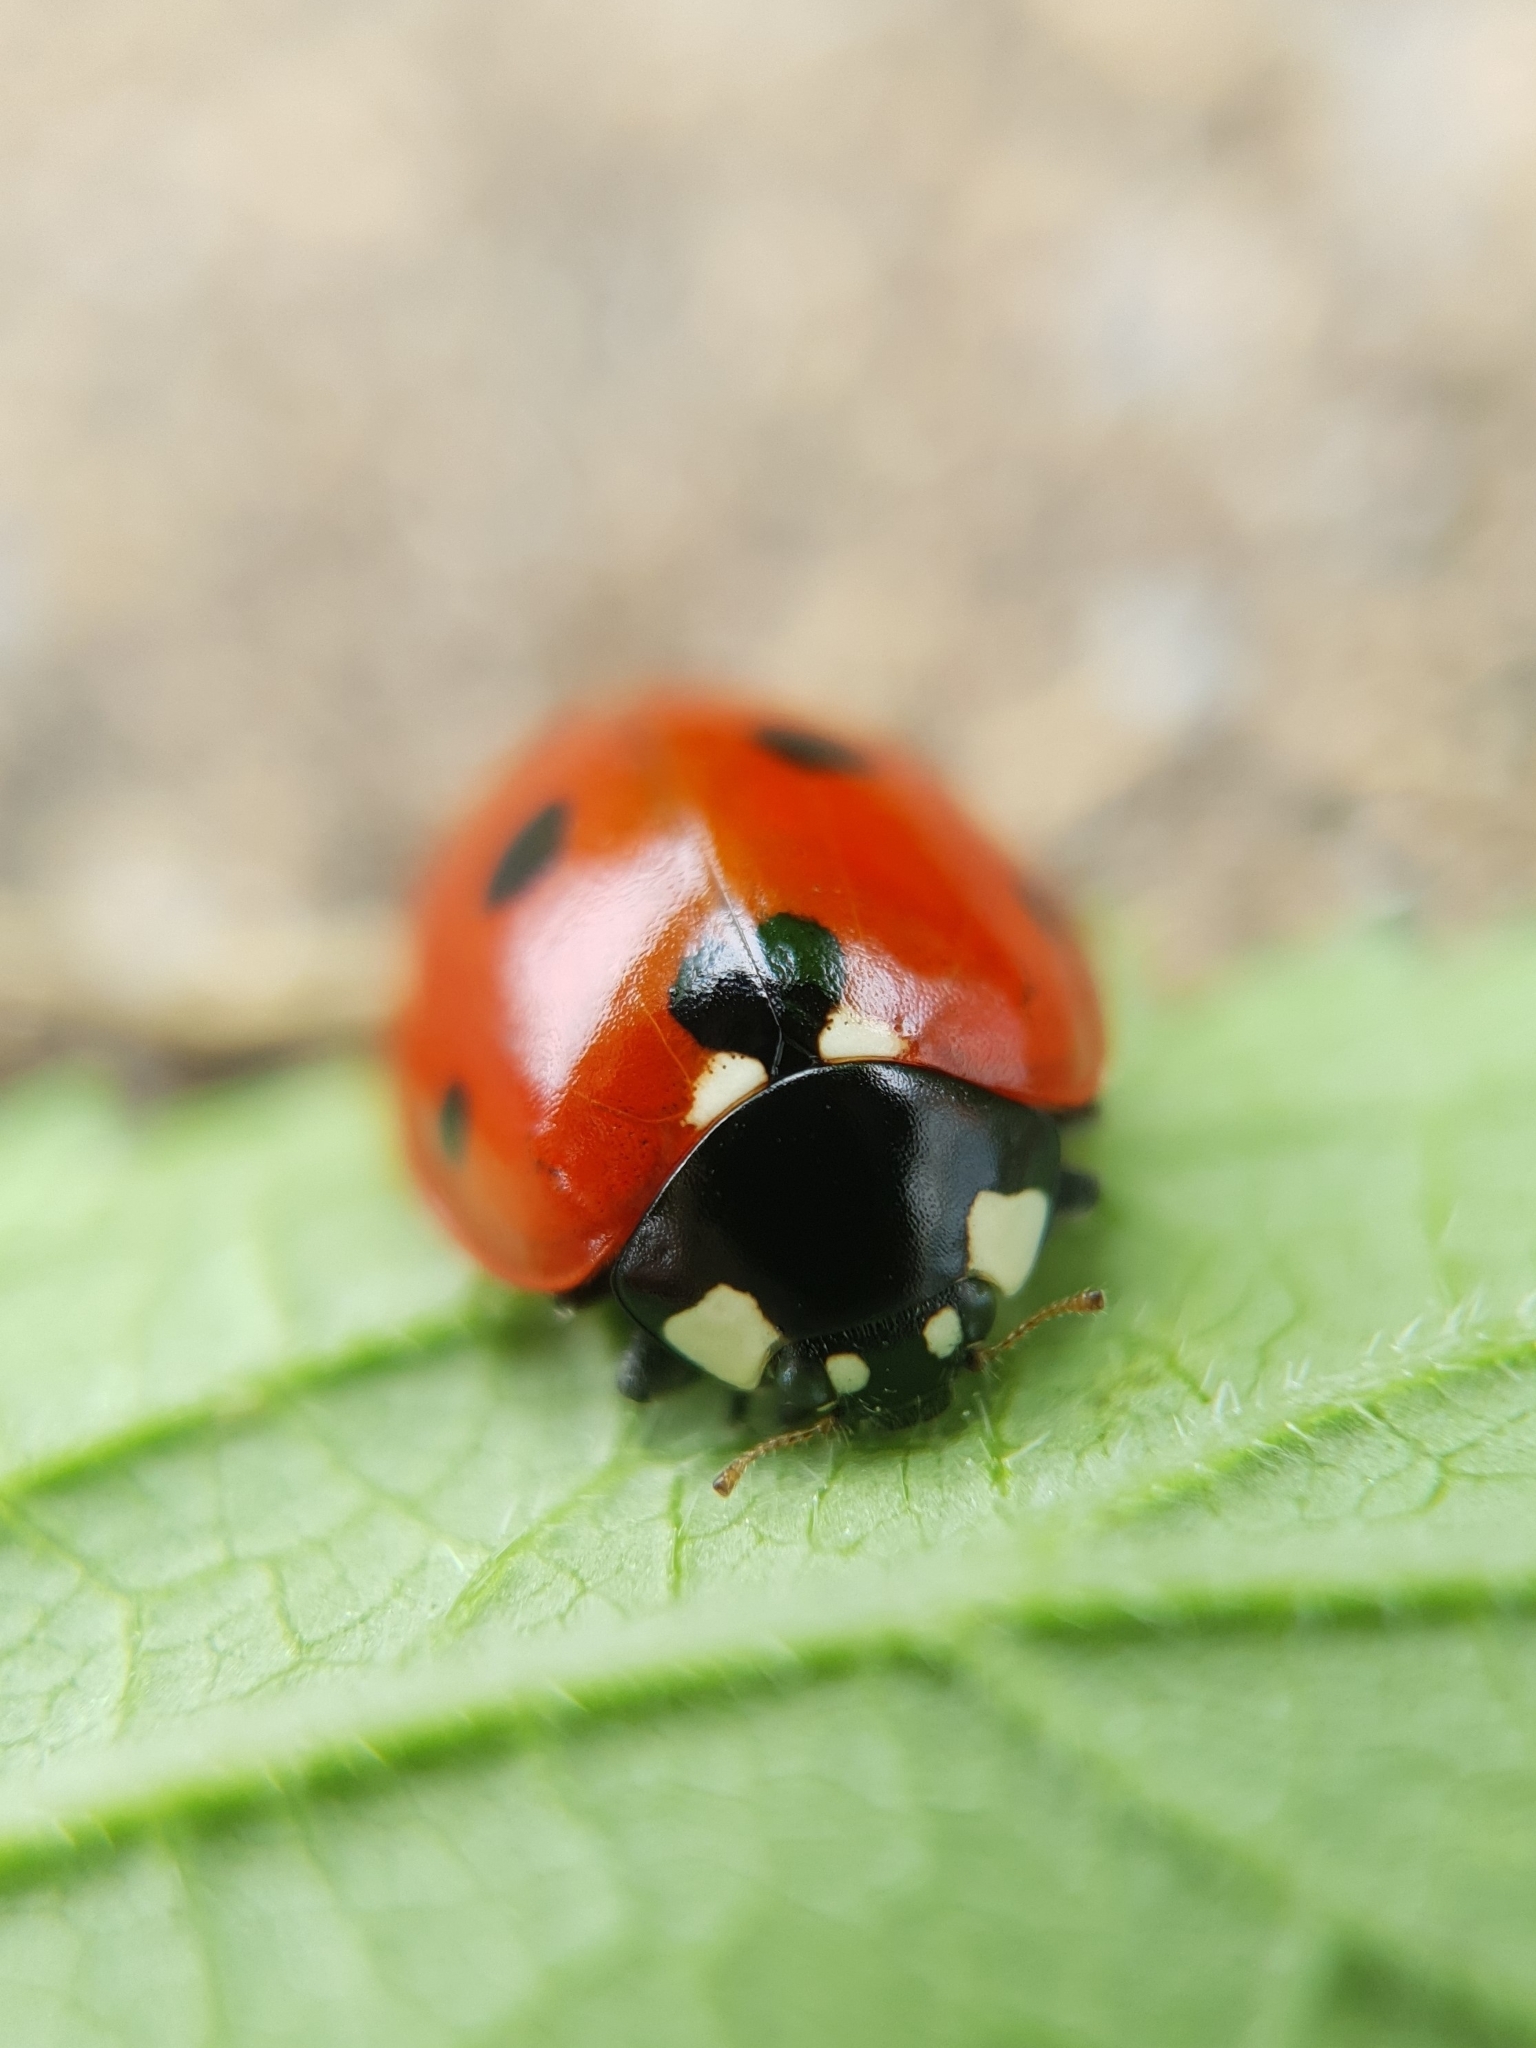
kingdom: Animalia
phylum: Arthropoda
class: Insecta
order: Coleoptera
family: Coccinellidae
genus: Coccinella
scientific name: Coccinella septempunctata
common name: Sevenspotted lady beetle
